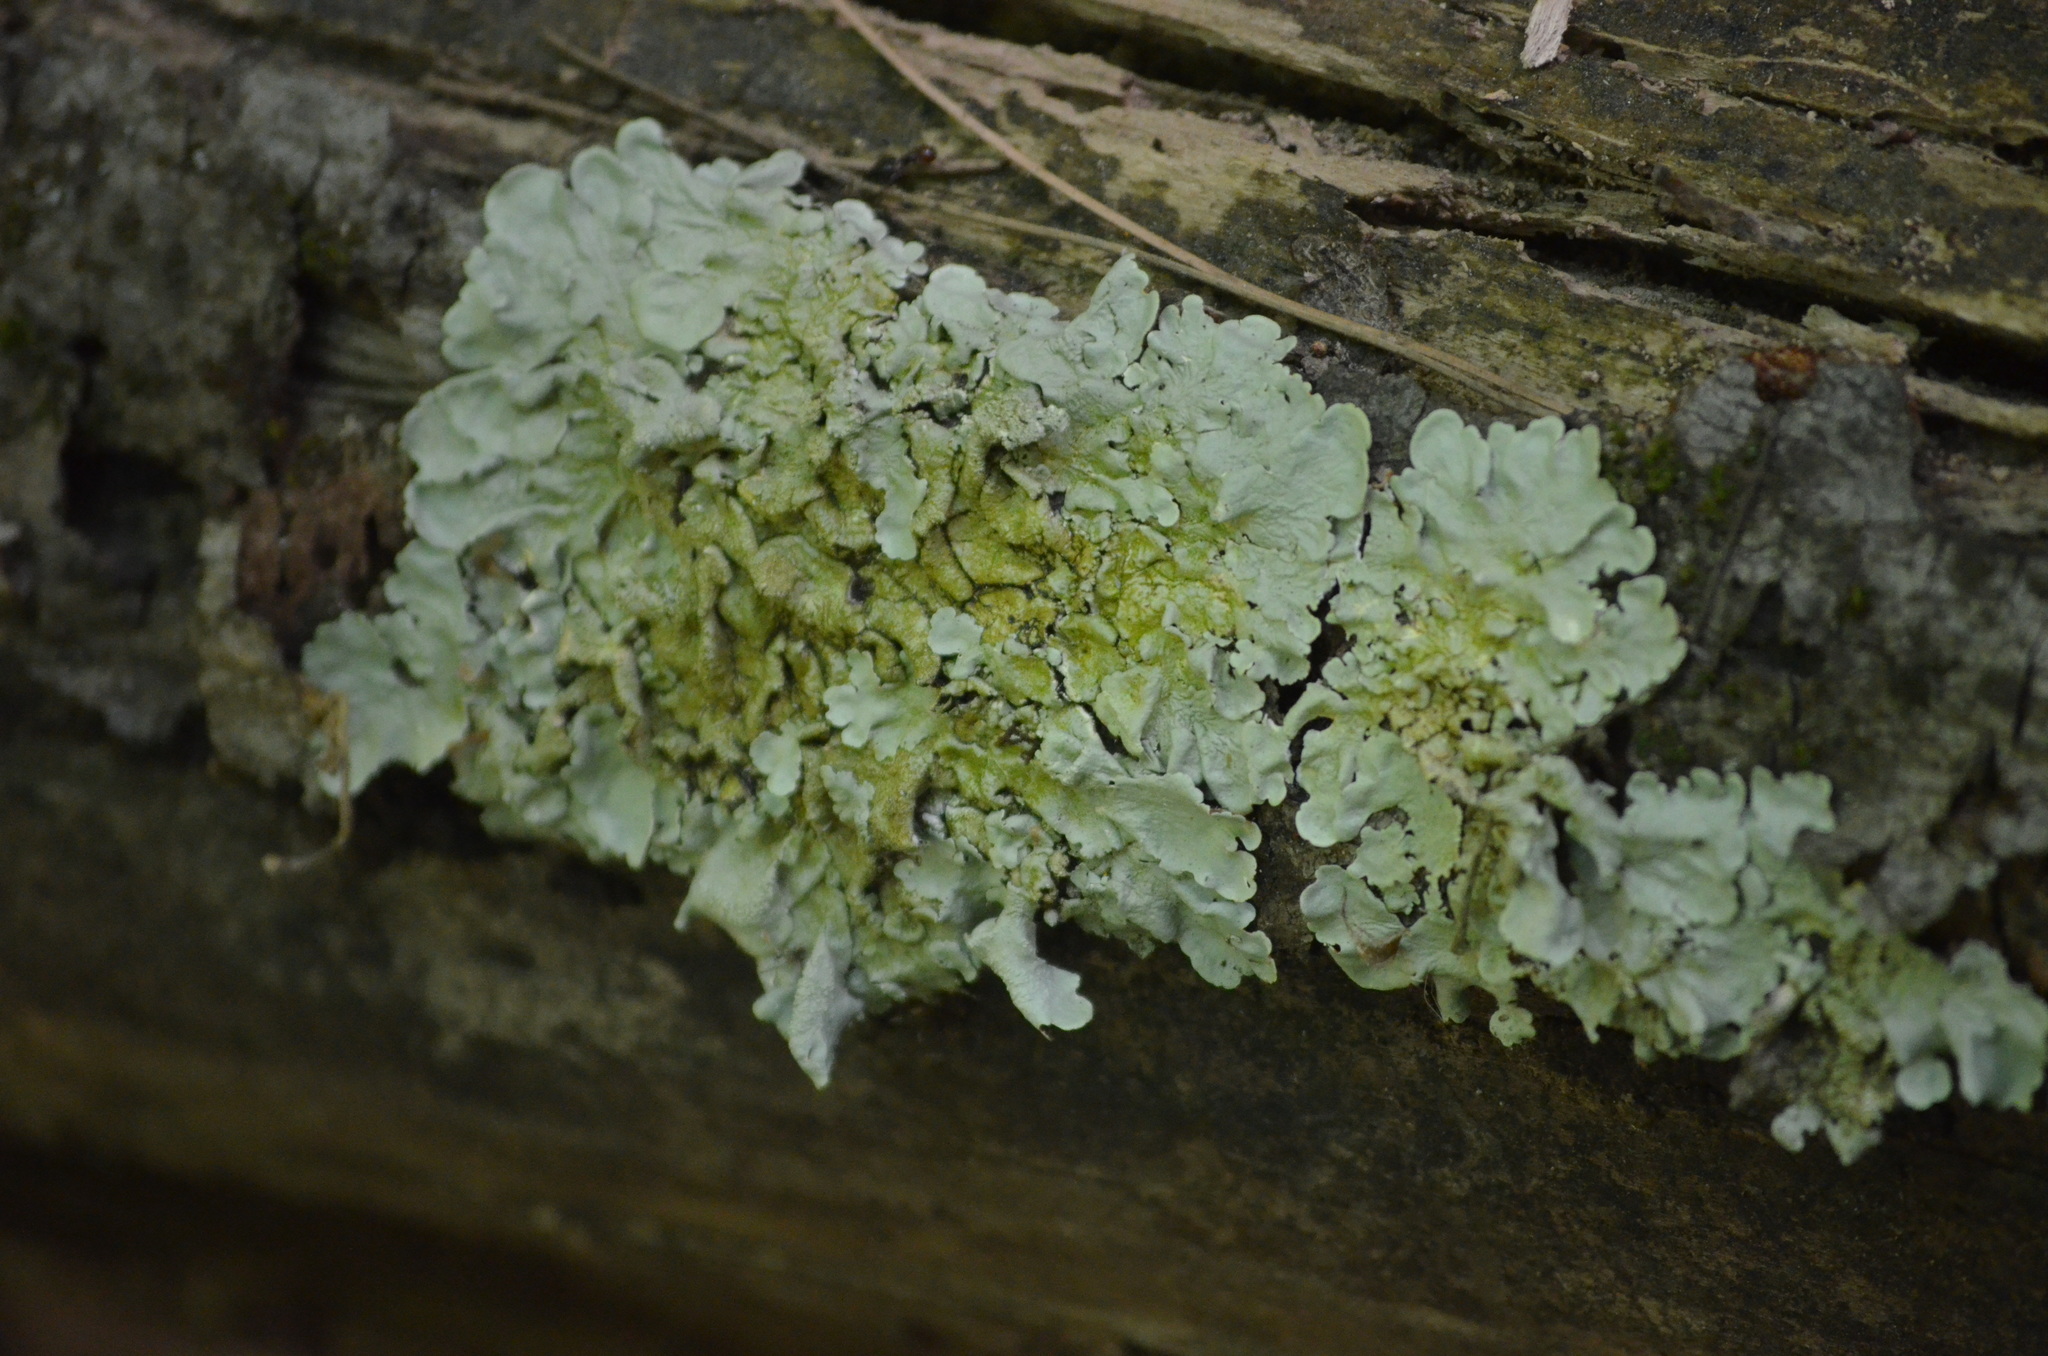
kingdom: Fungi
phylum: Ascomycota
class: Lecanoromycetes
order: Lecanorales
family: Parmeliaceae
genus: Flavoparmelia
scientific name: Flavoparmelia caperata
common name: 40-mile per hour lichen
